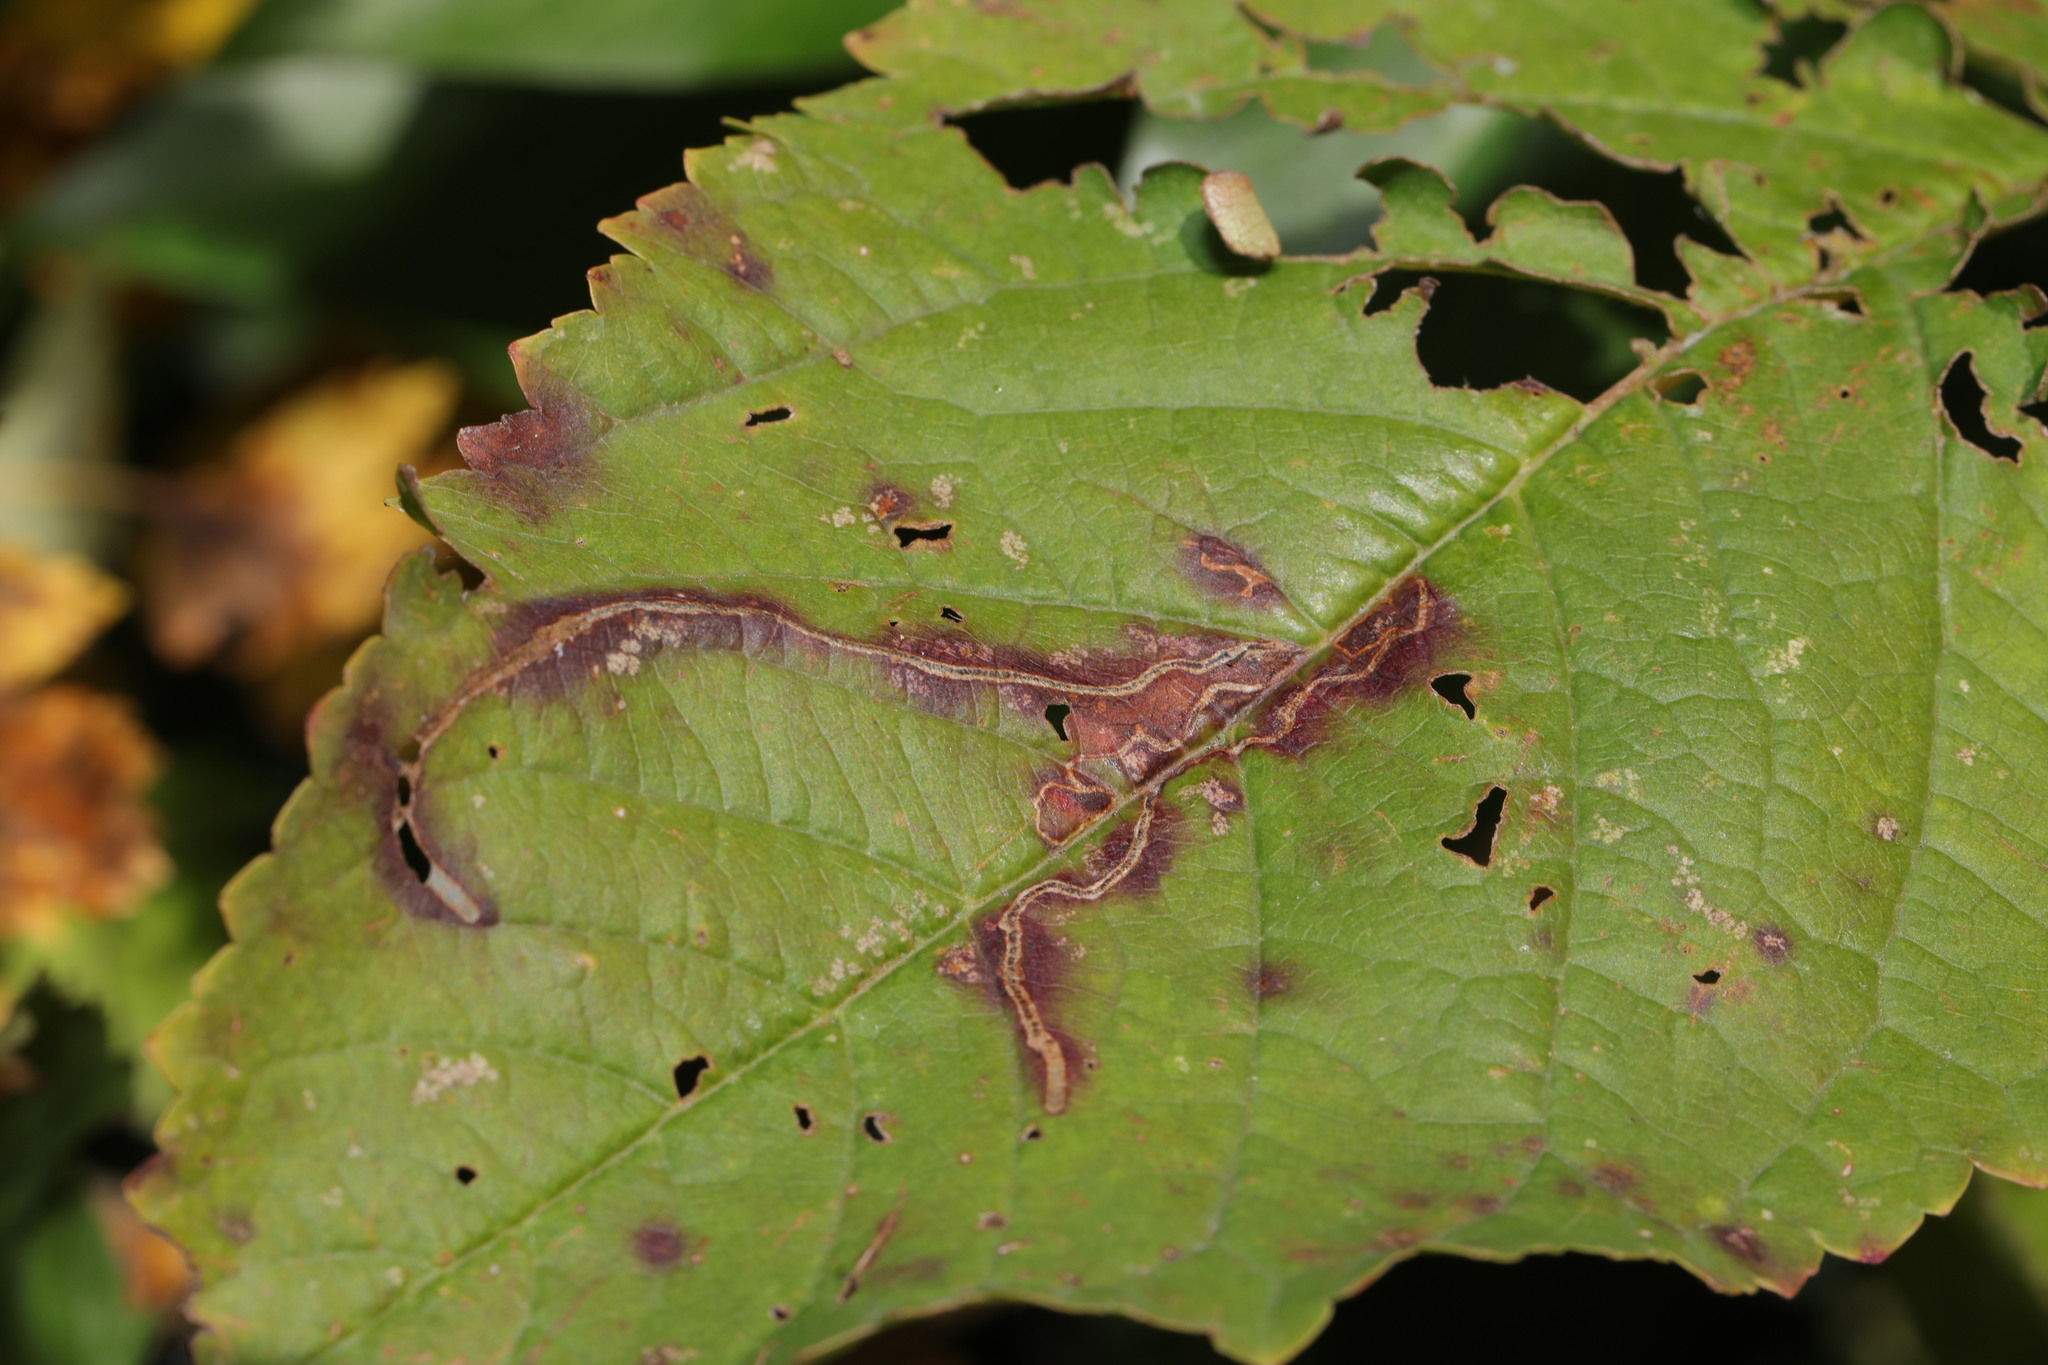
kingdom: Animalia
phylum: Arthropoda
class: Insecta
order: Lepidoptera
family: Lyonetiidae
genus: Lyonetia
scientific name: Lyonetia clerkella
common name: Apple leaf miner
